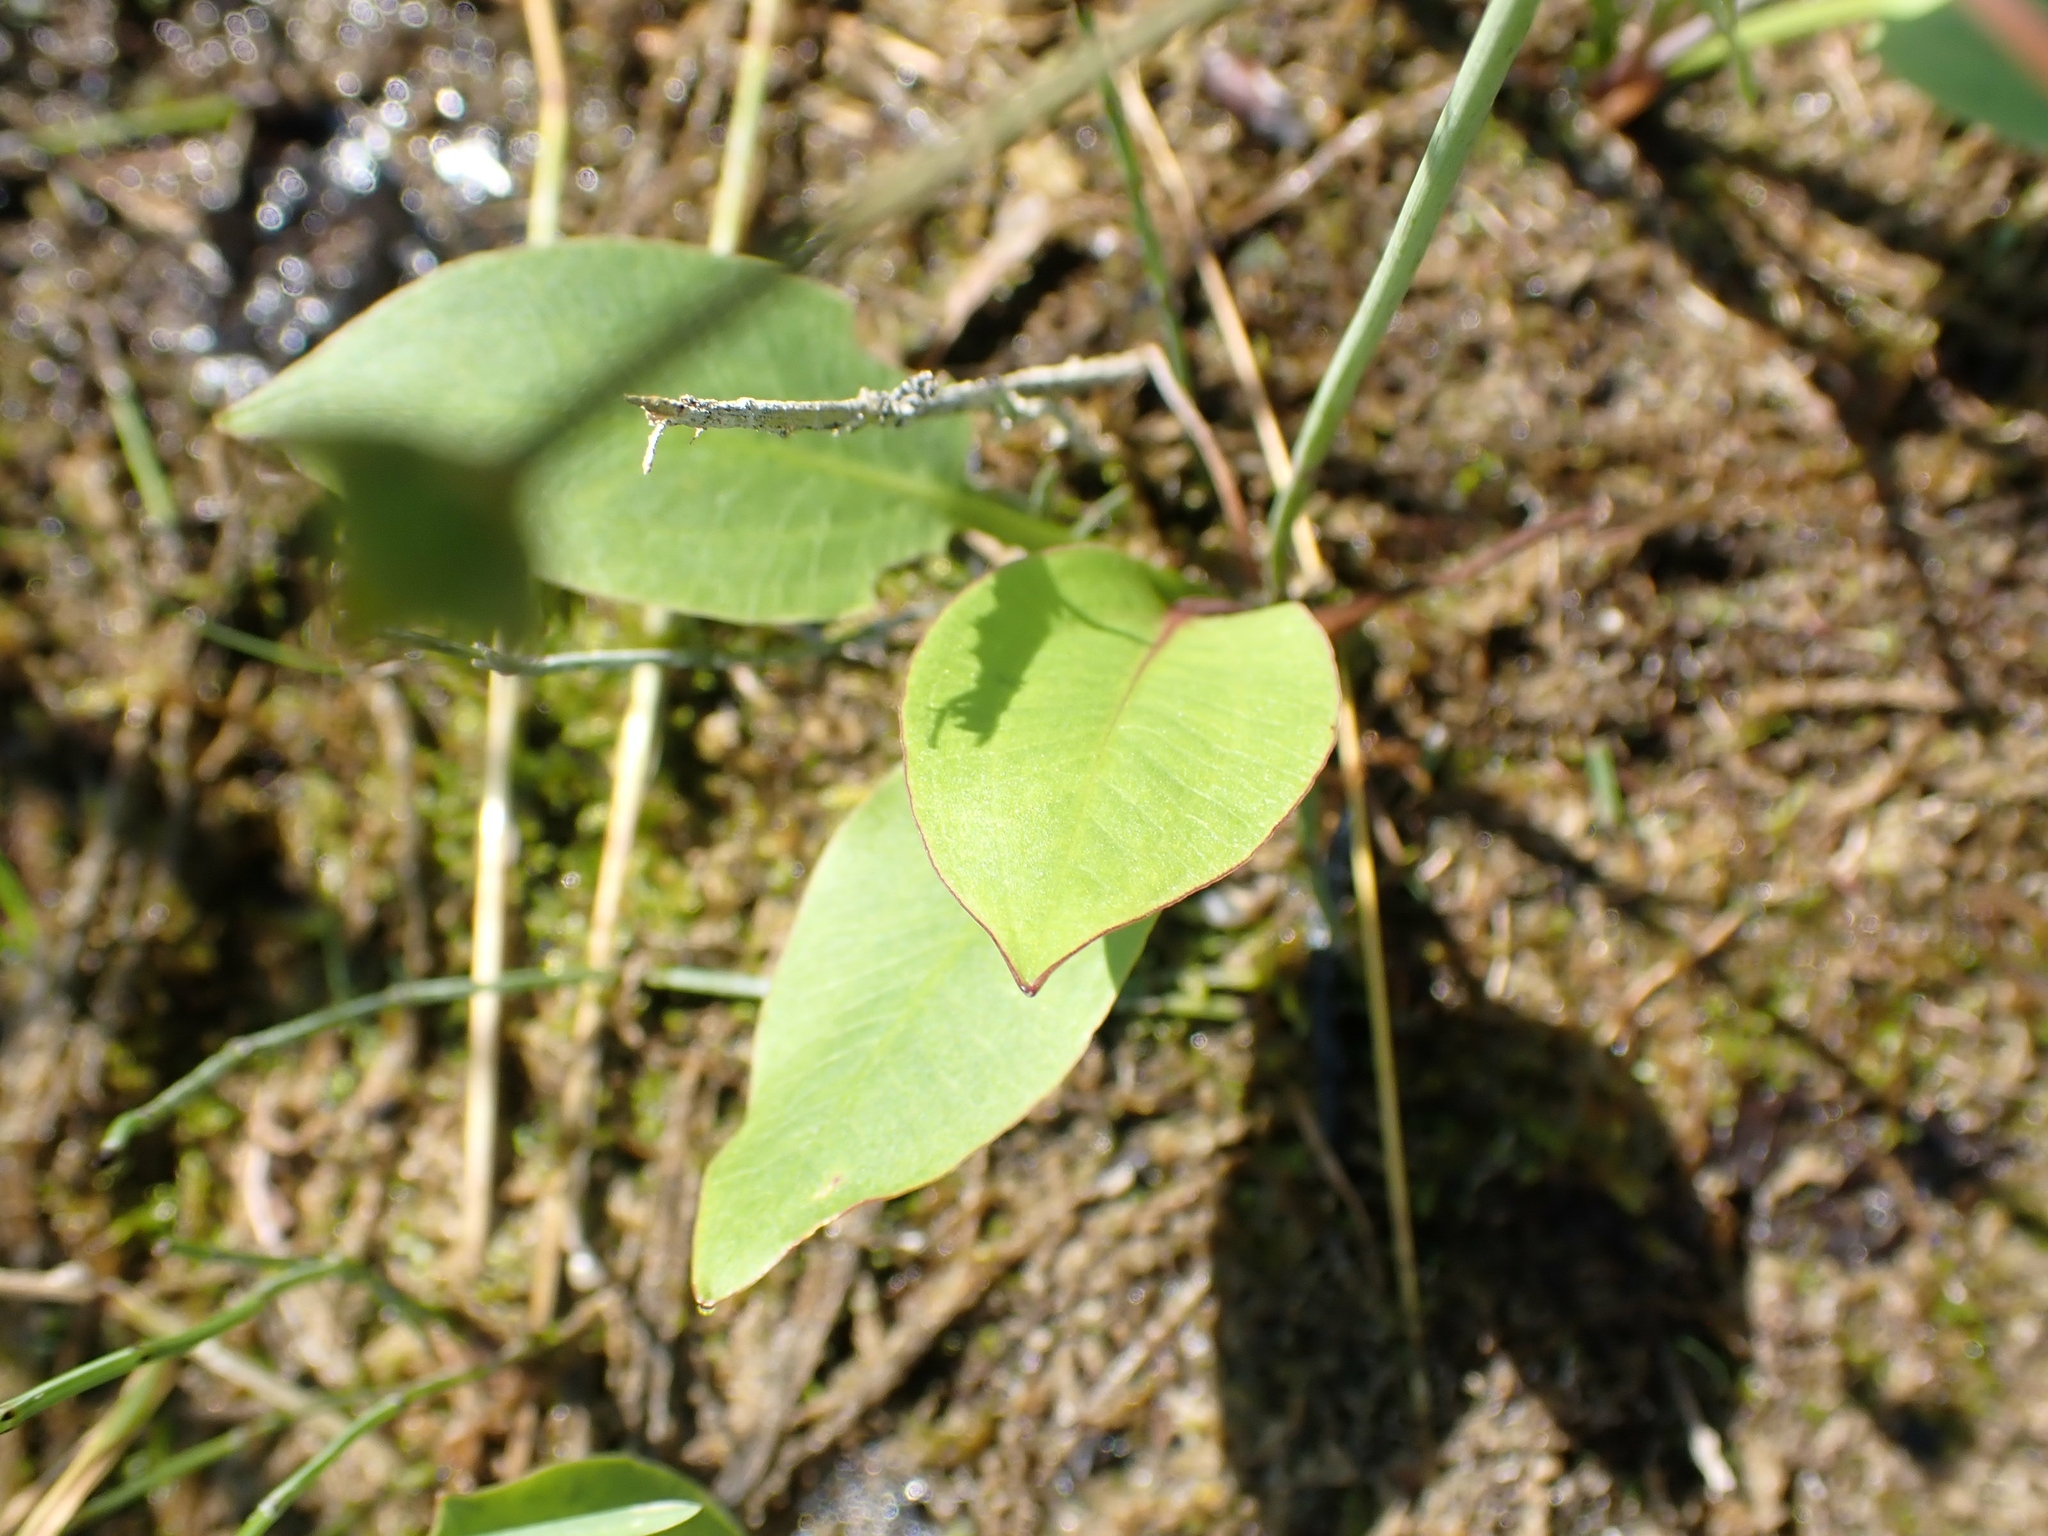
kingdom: Plantae
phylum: Tracheophyta
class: Liliopsida
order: Alismatales
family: Alismataceae
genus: Alisma
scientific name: Alisma triviale
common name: Northern water-plantain
